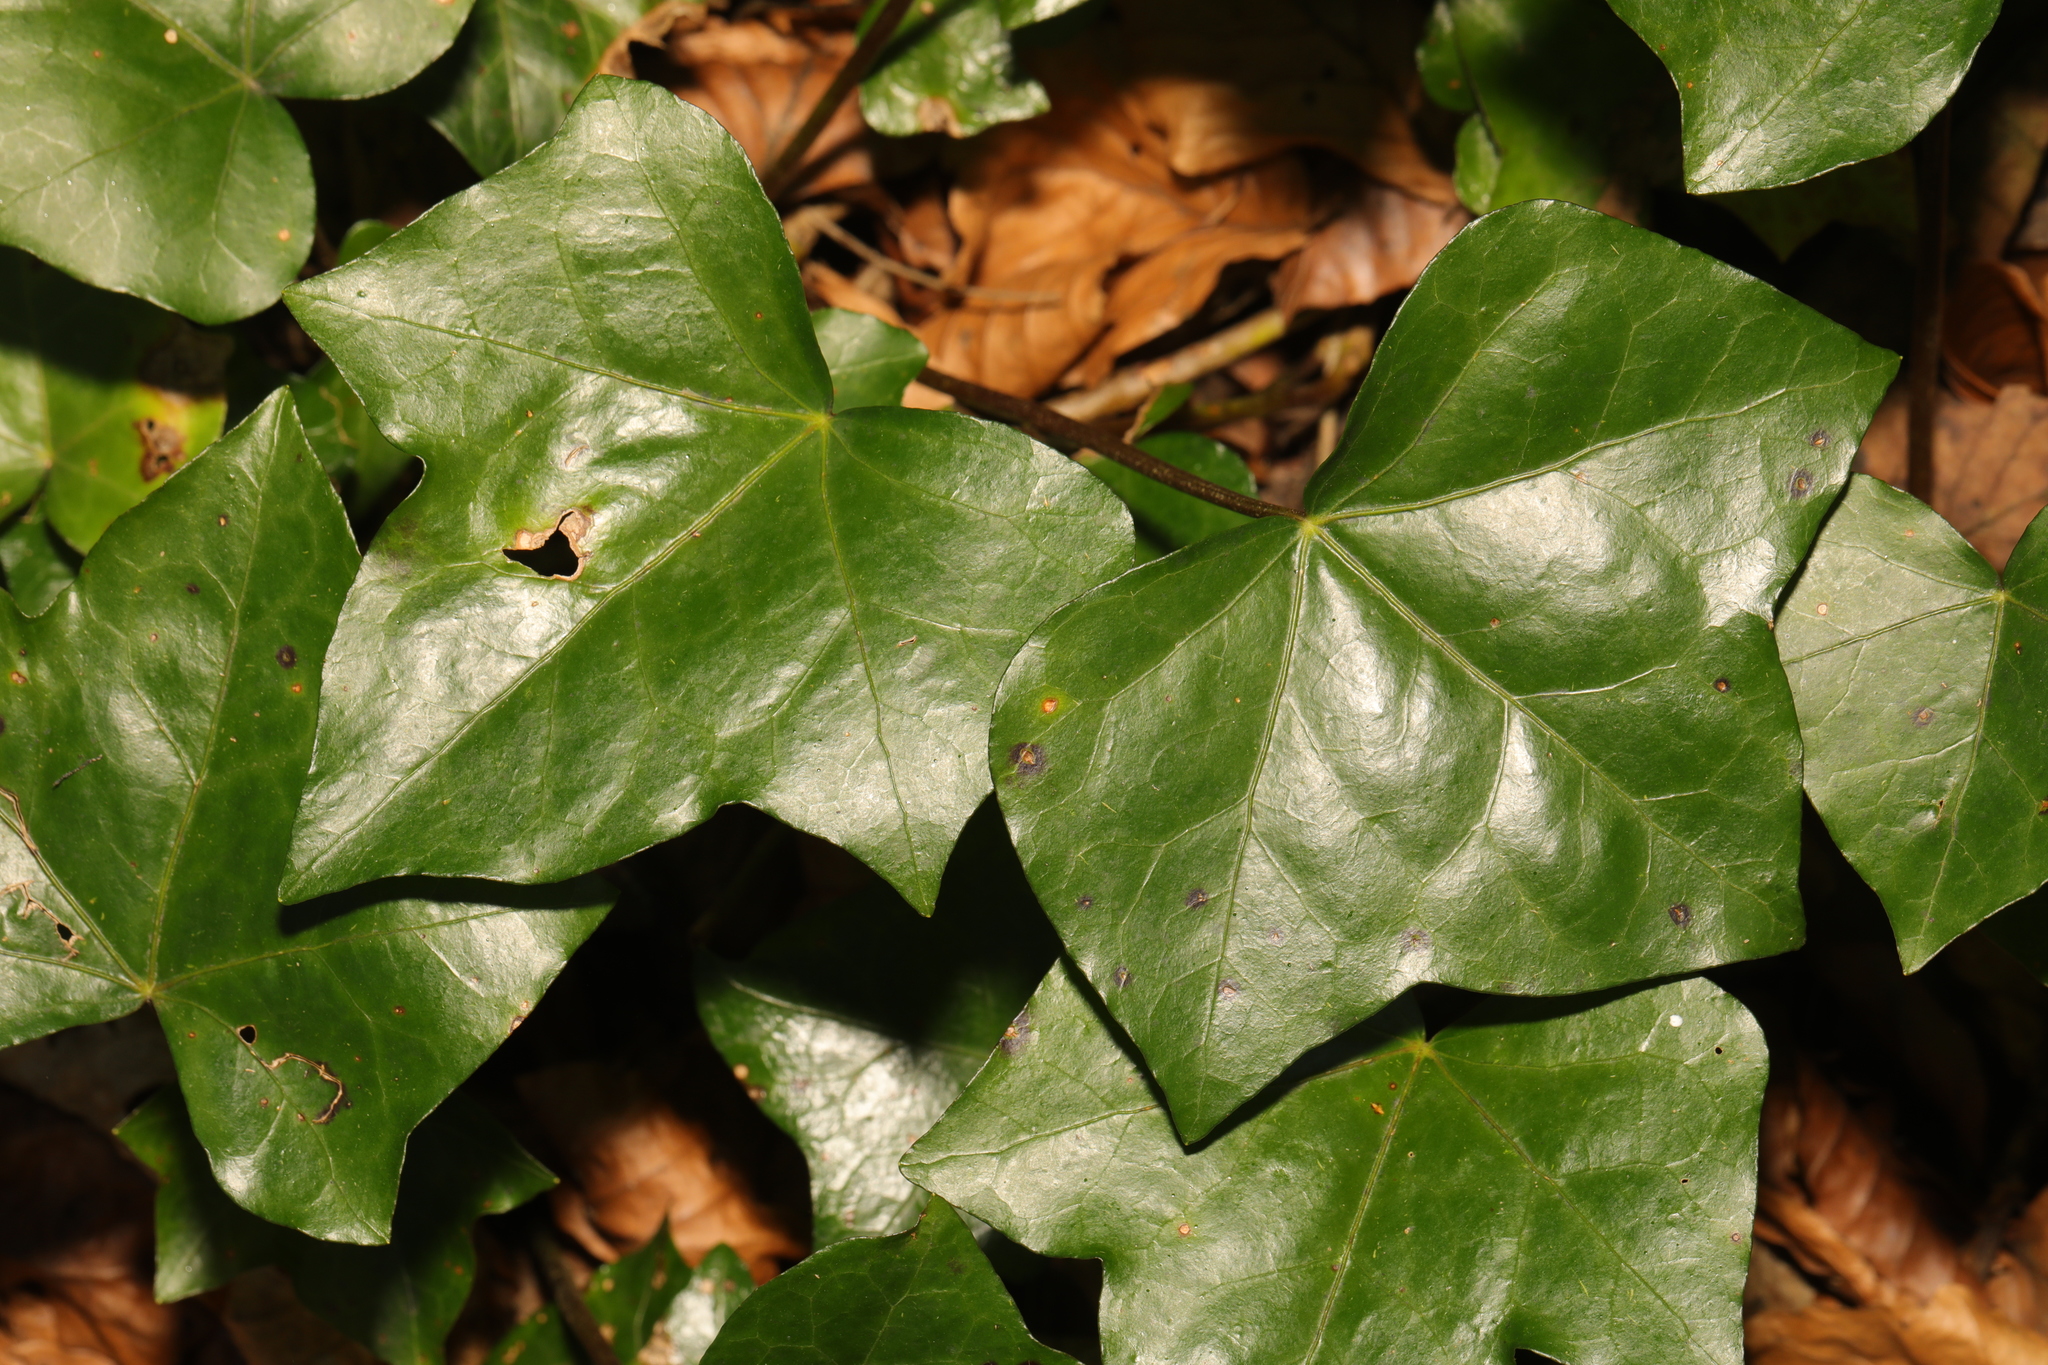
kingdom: Plantae
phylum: Tracheophyta
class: Magnoliopsida
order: Apiales
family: Araliaceae
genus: Hedera
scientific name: Hedera helix
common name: Ivy
